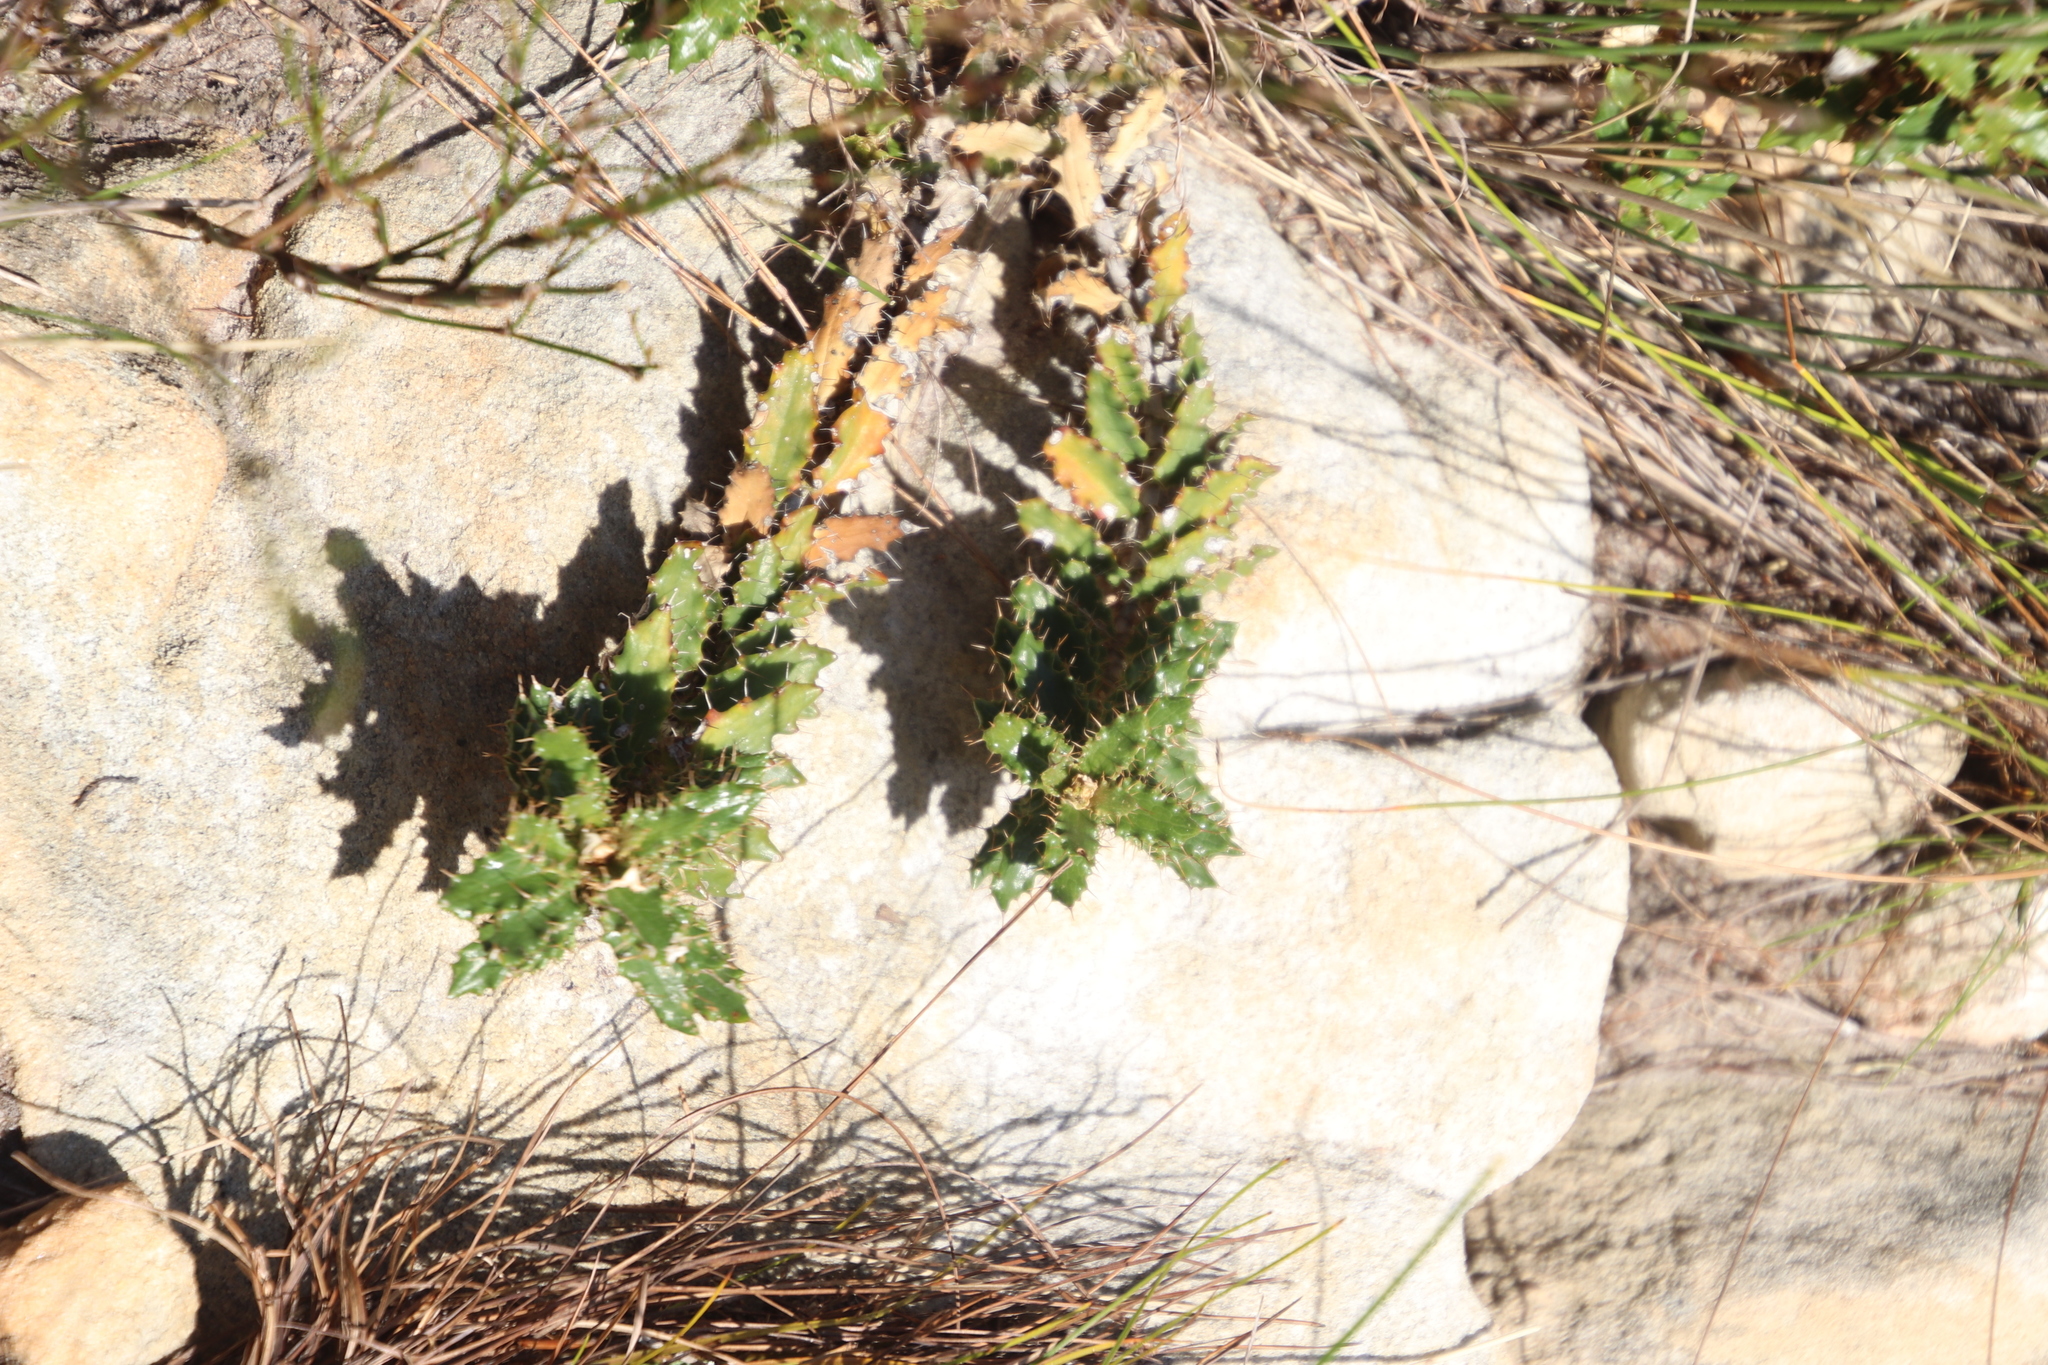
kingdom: Plantae
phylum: Tracheophyta
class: Magnoliopsida
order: Asterales
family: Asteraceae
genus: Berkheya
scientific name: Berkheya barbata
